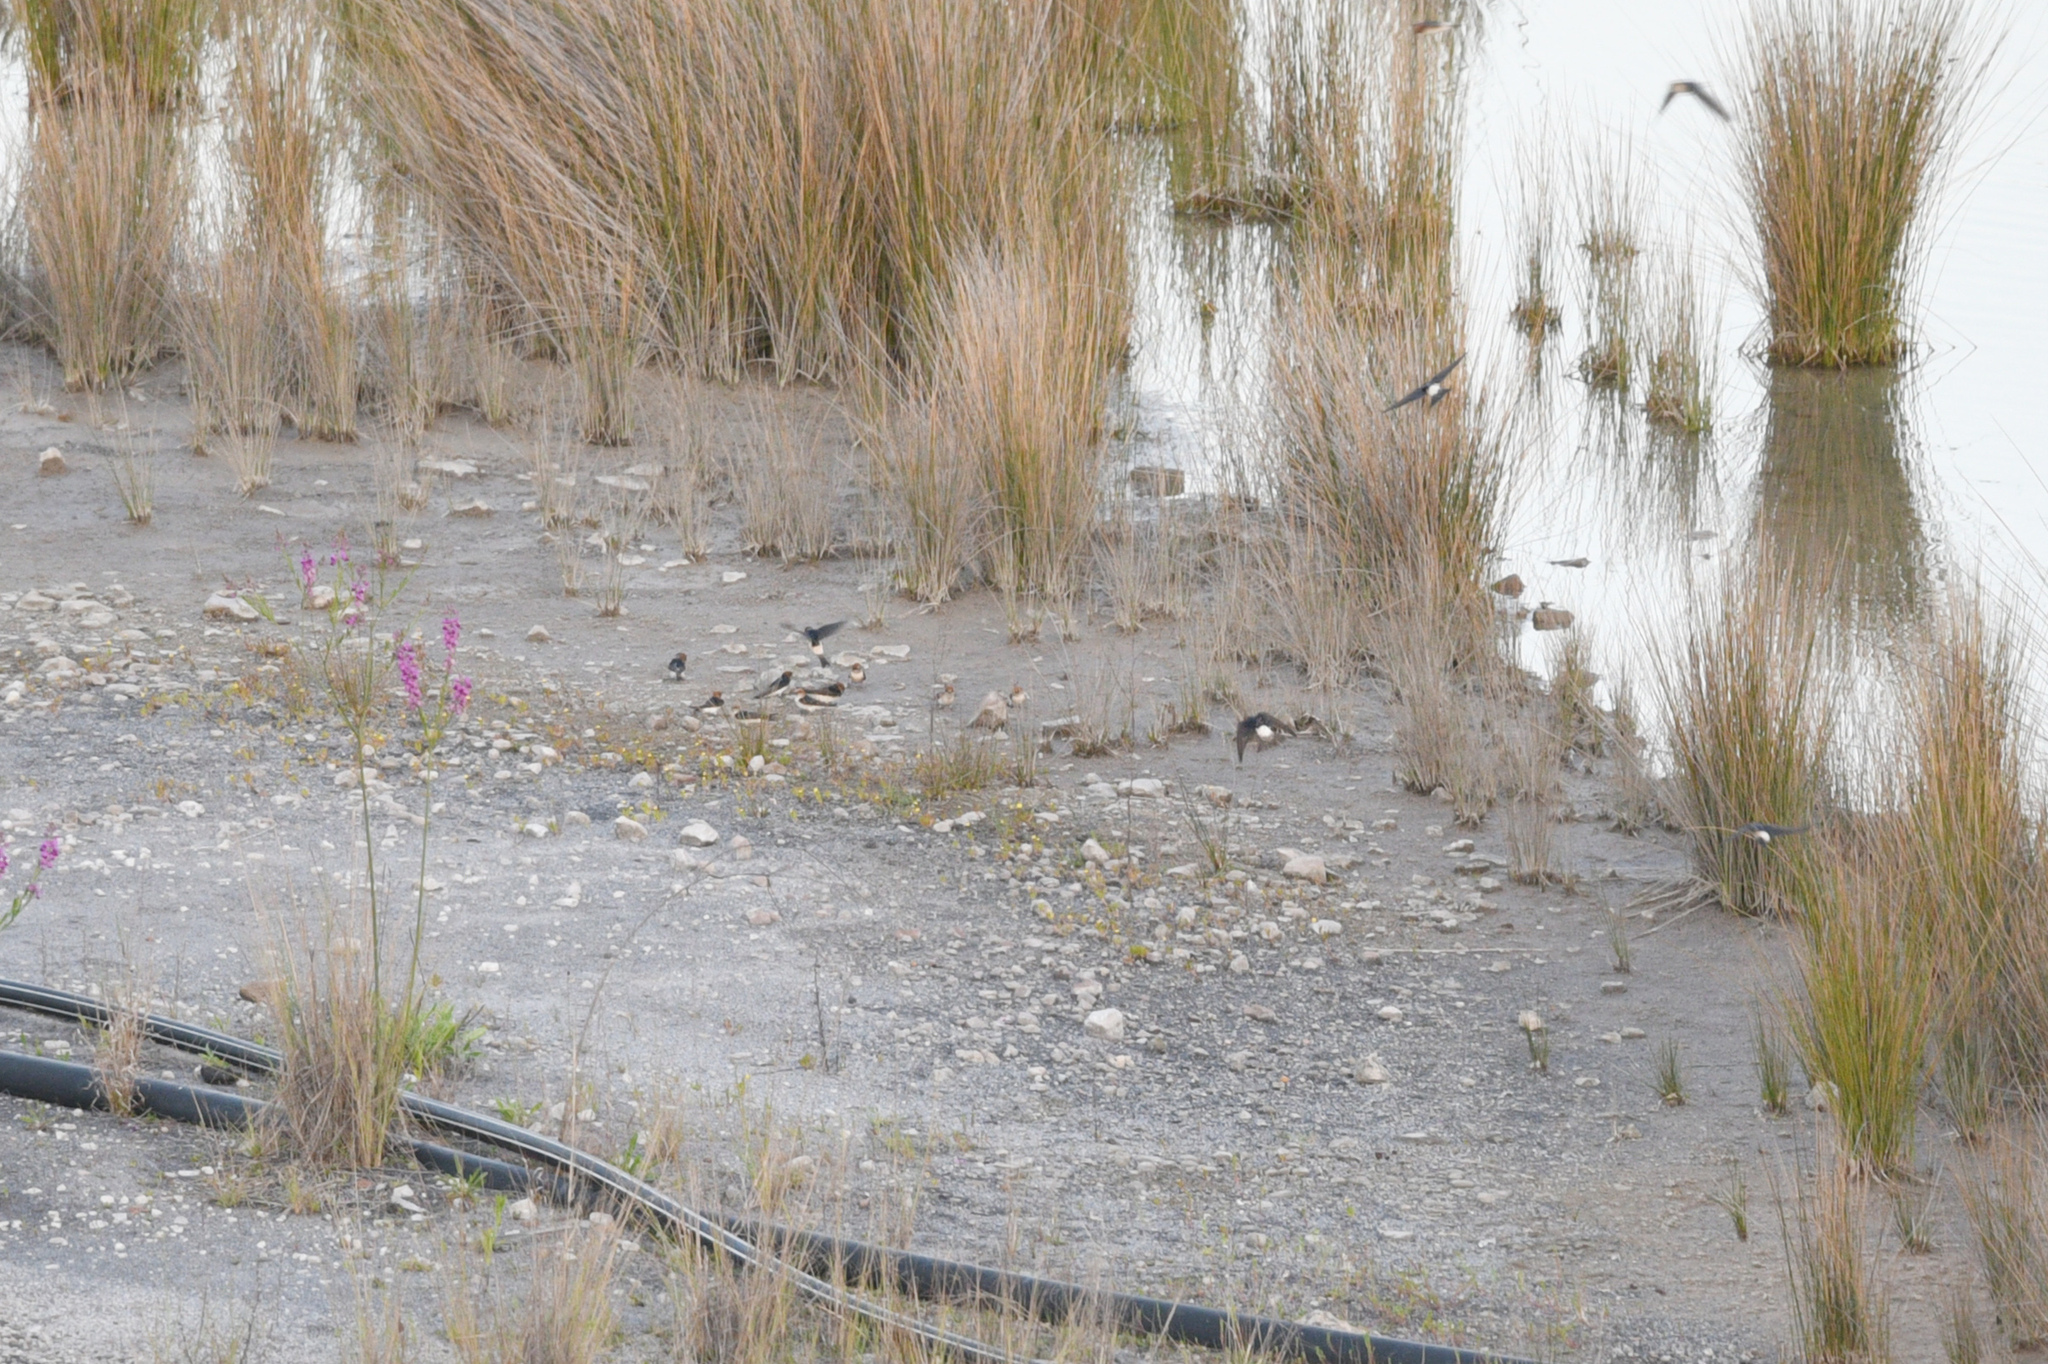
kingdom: Animalia
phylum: Chordata
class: Aves
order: Passeriformes
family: Hirundinidae
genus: Petrochelidon
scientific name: Petrochelidon ariel
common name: Fairy martin
